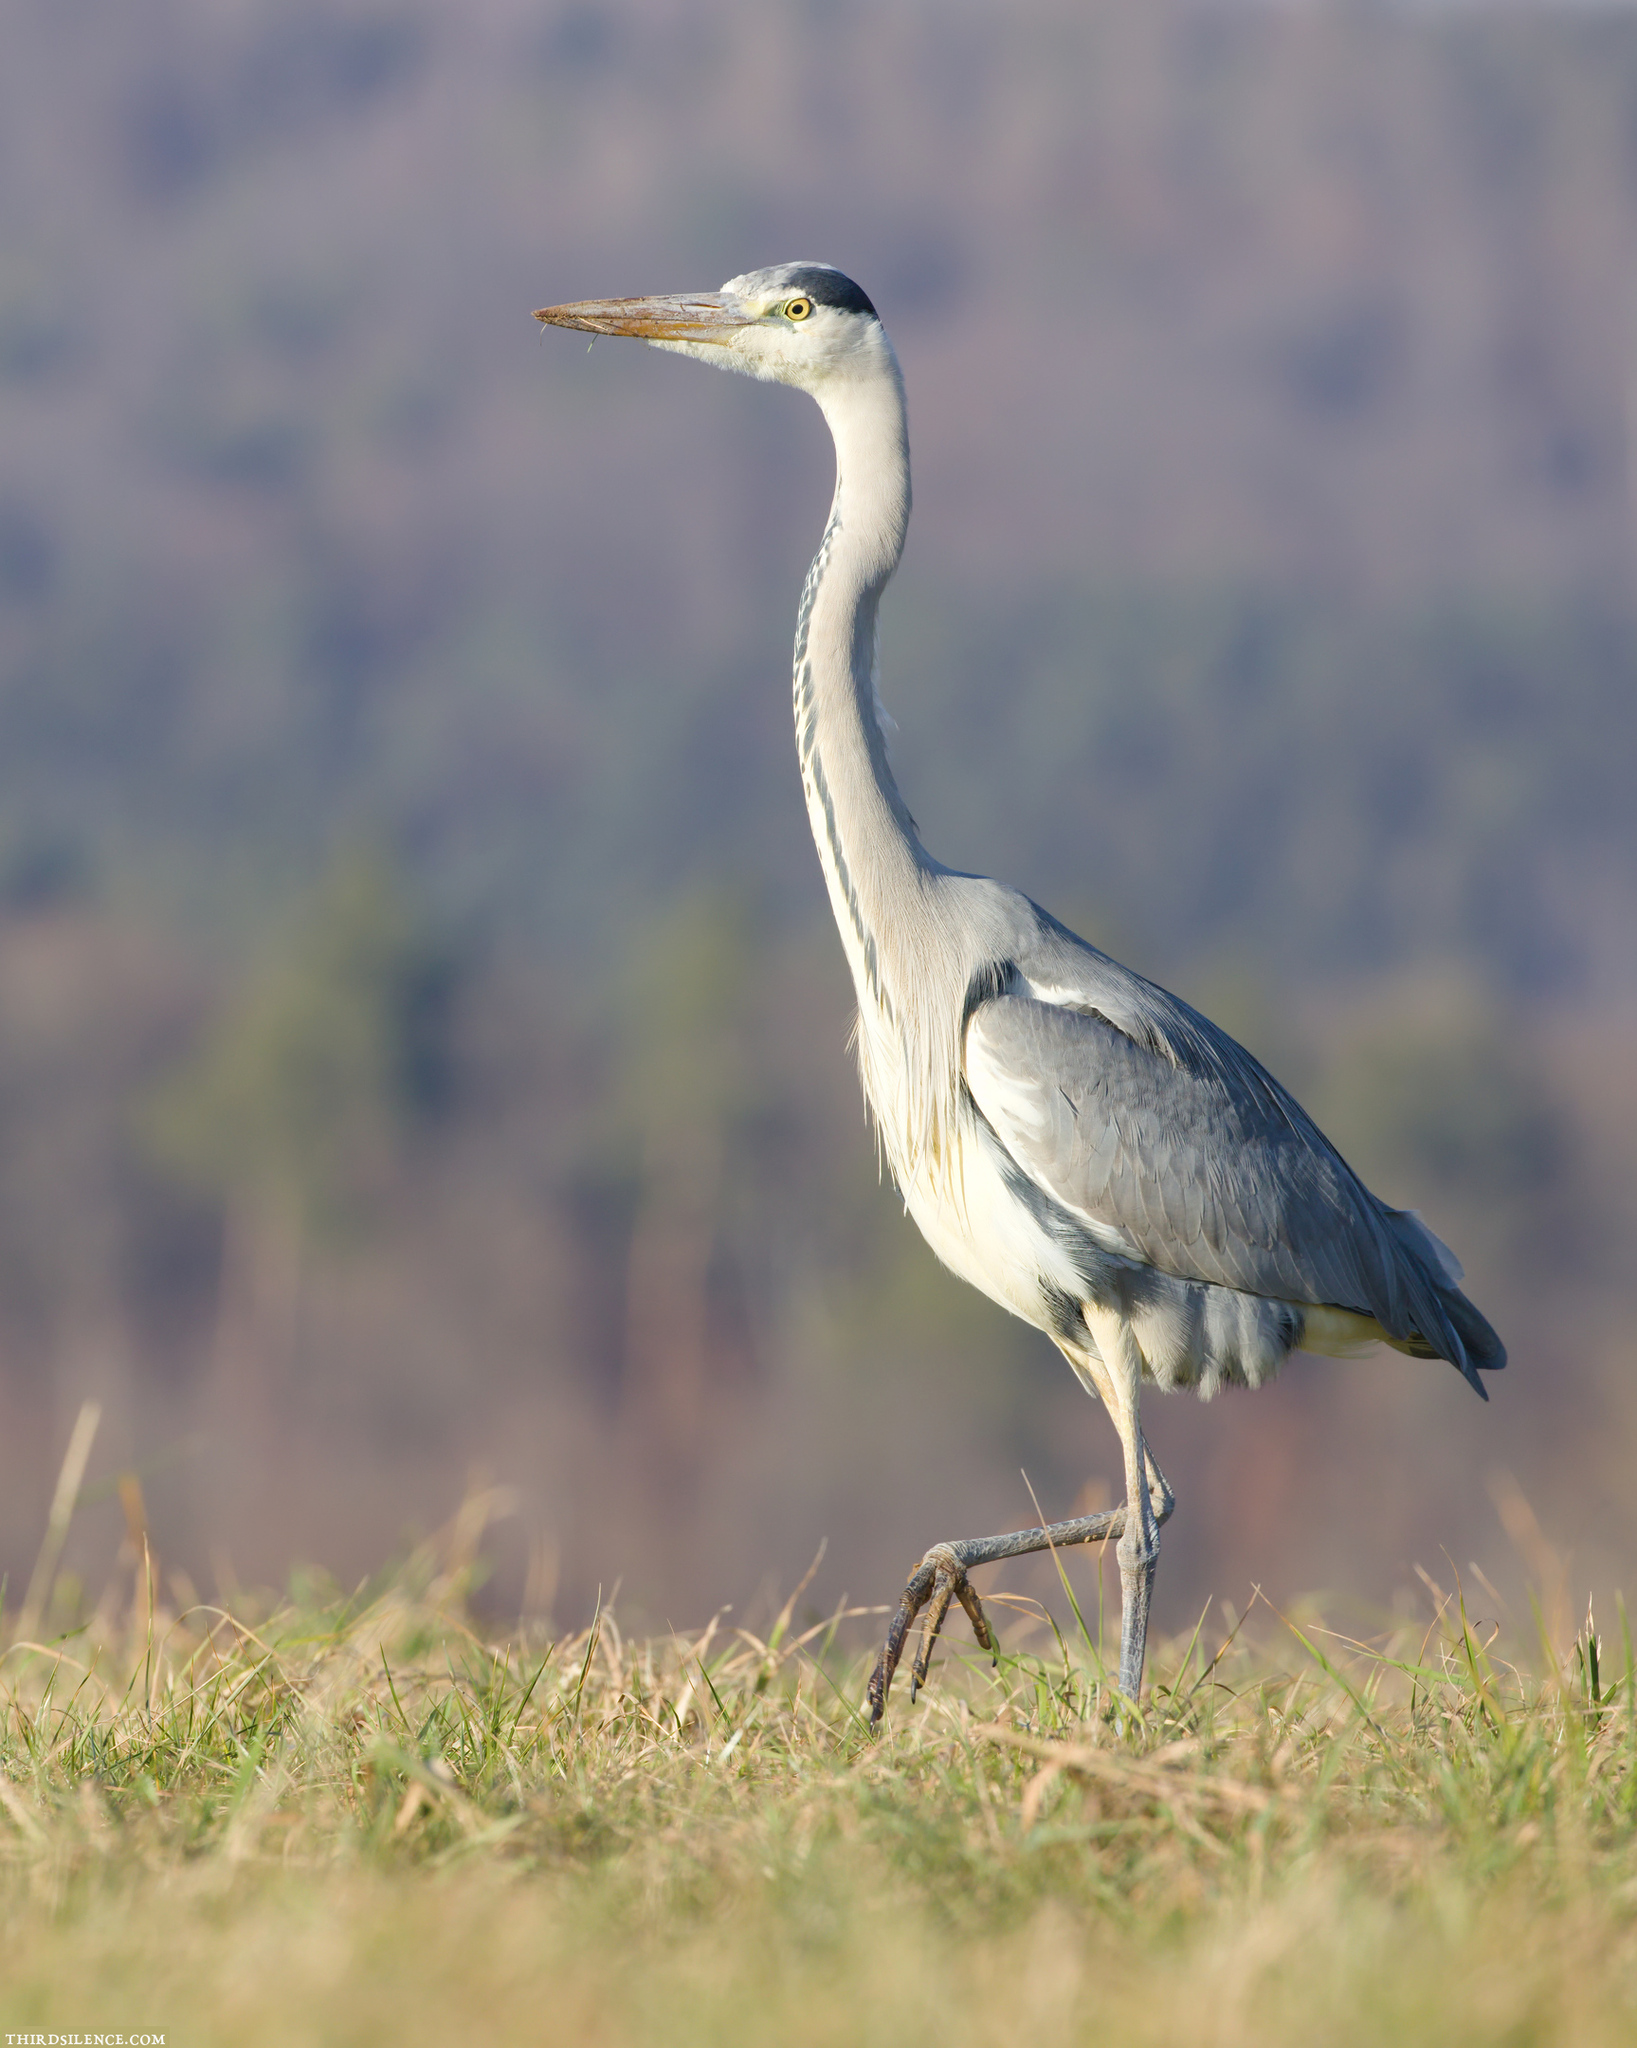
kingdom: Animalia
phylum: Chordata
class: Aves
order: Pelecaniformes
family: Ardeidae
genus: Ardea
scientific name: Ardea cinerea
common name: Grey heron
